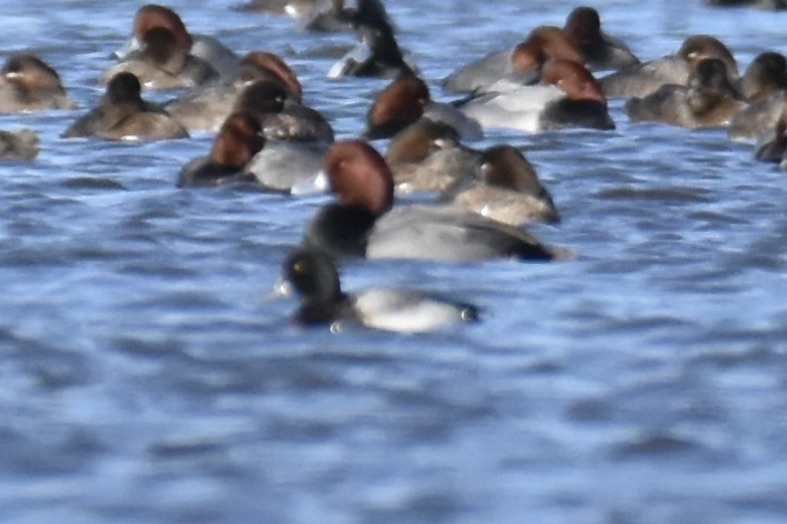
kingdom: Animalia
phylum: Chordata
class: Aves
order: Anseriformes
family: Anatidae
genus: Aythya
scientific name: Aythya affinis
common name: Lesser scaup
